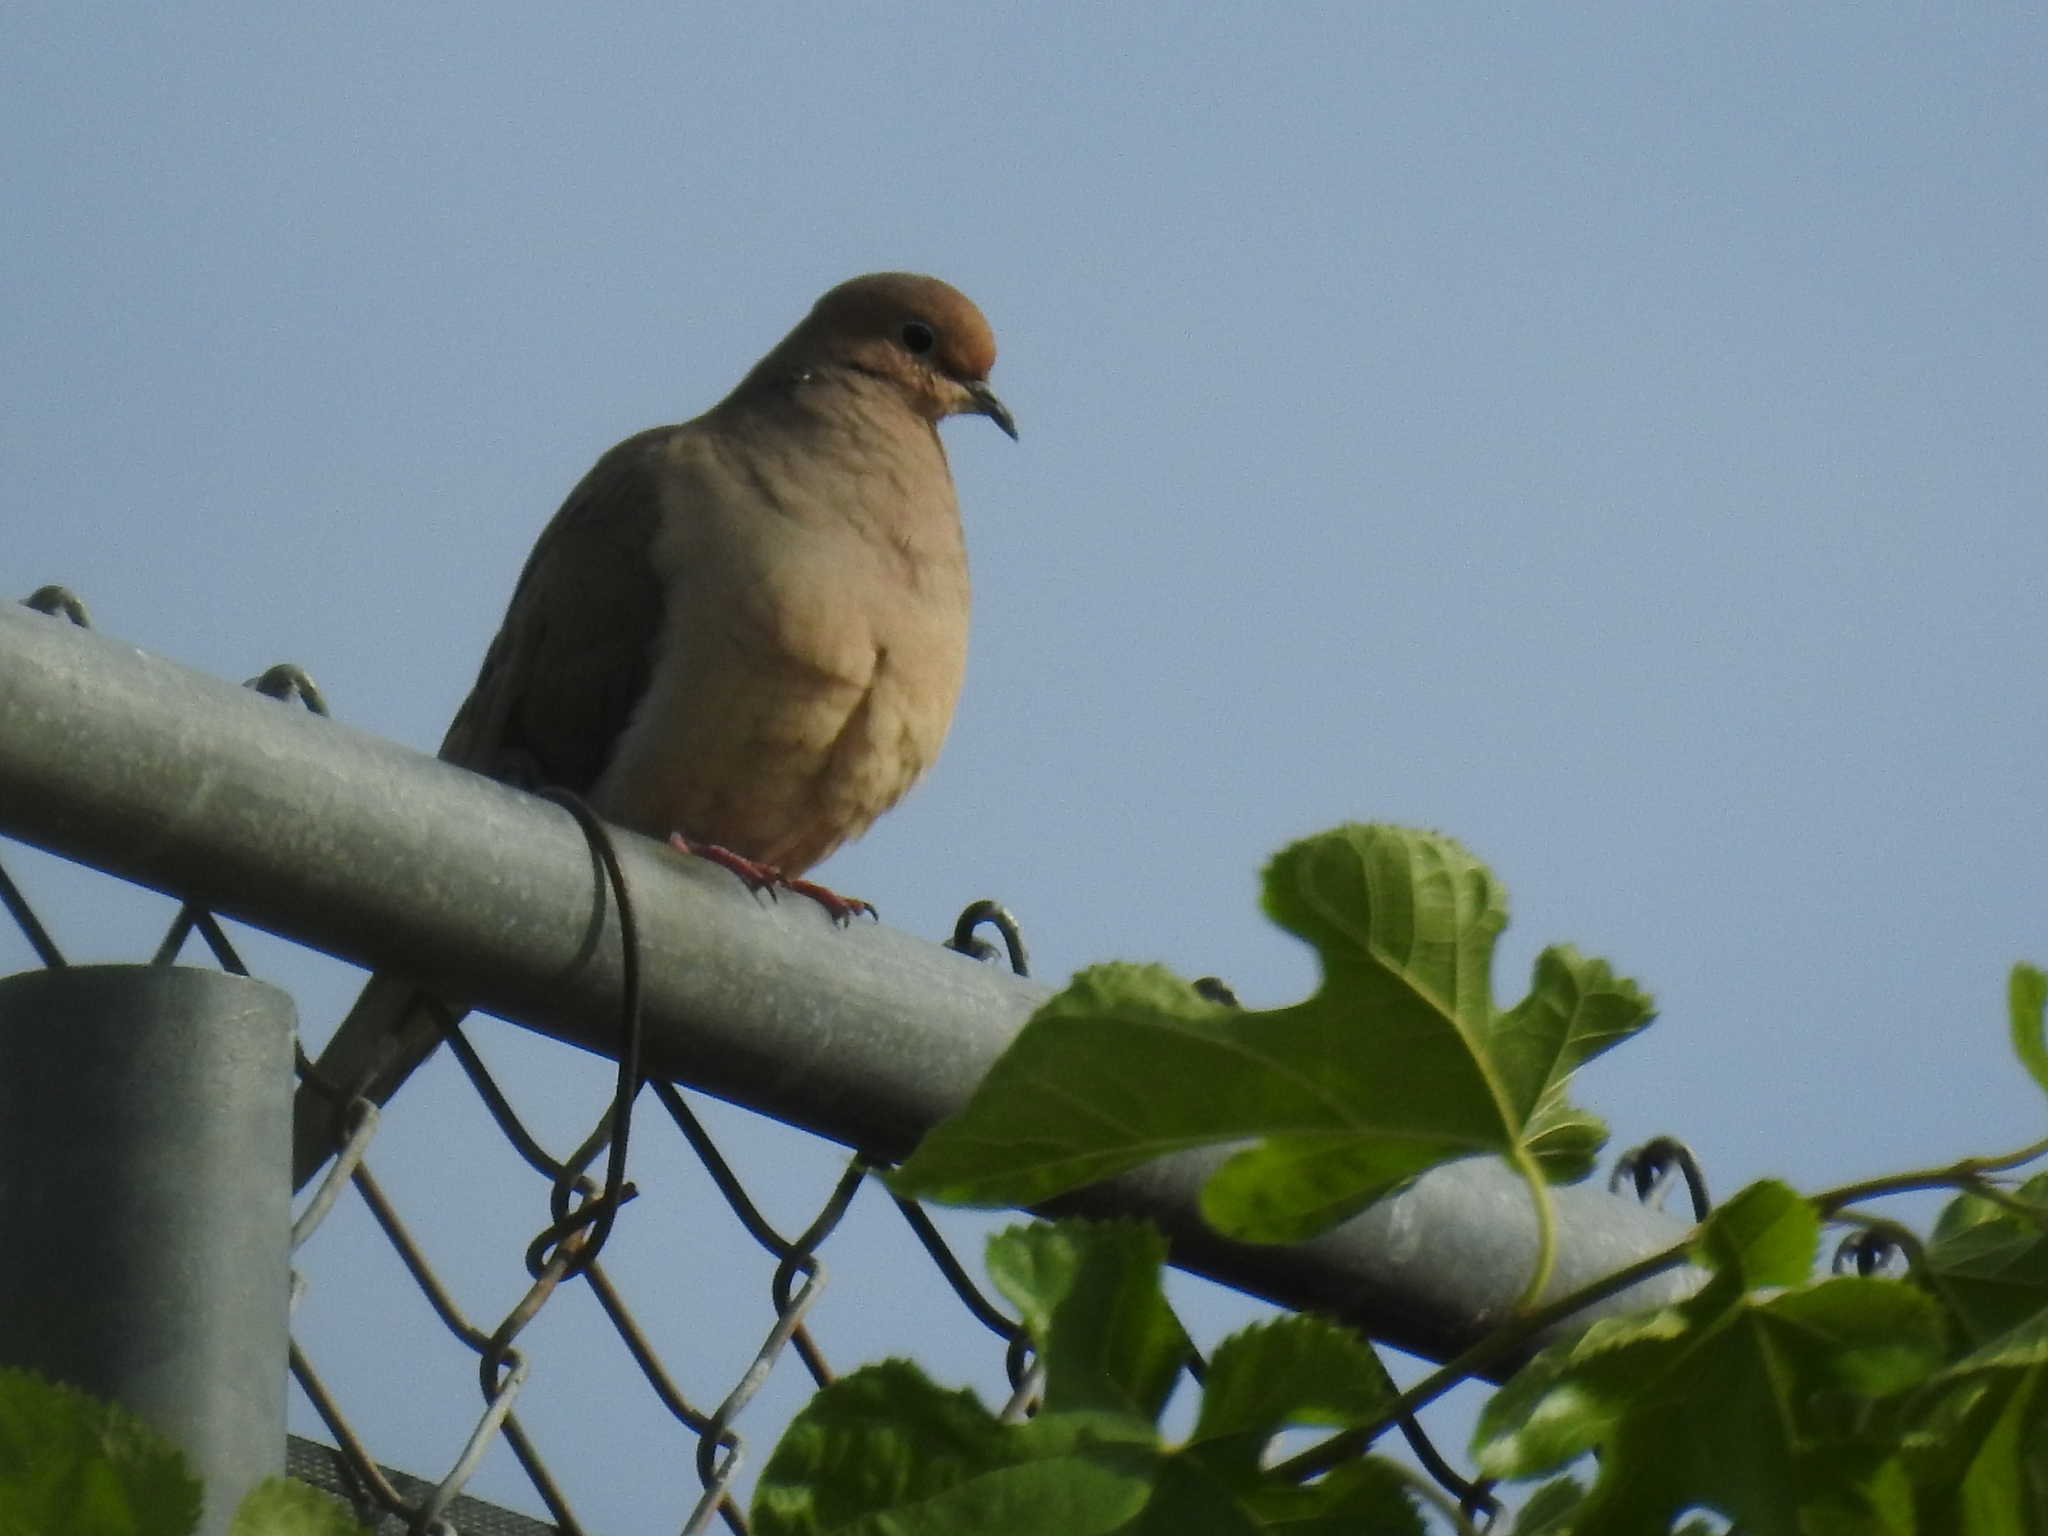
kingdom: Animalia
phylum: Chordata
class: Aves
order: Columbiformes
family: Columbidae
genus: Zenaida
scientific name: Zenaida macroura
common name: Mourning dove
